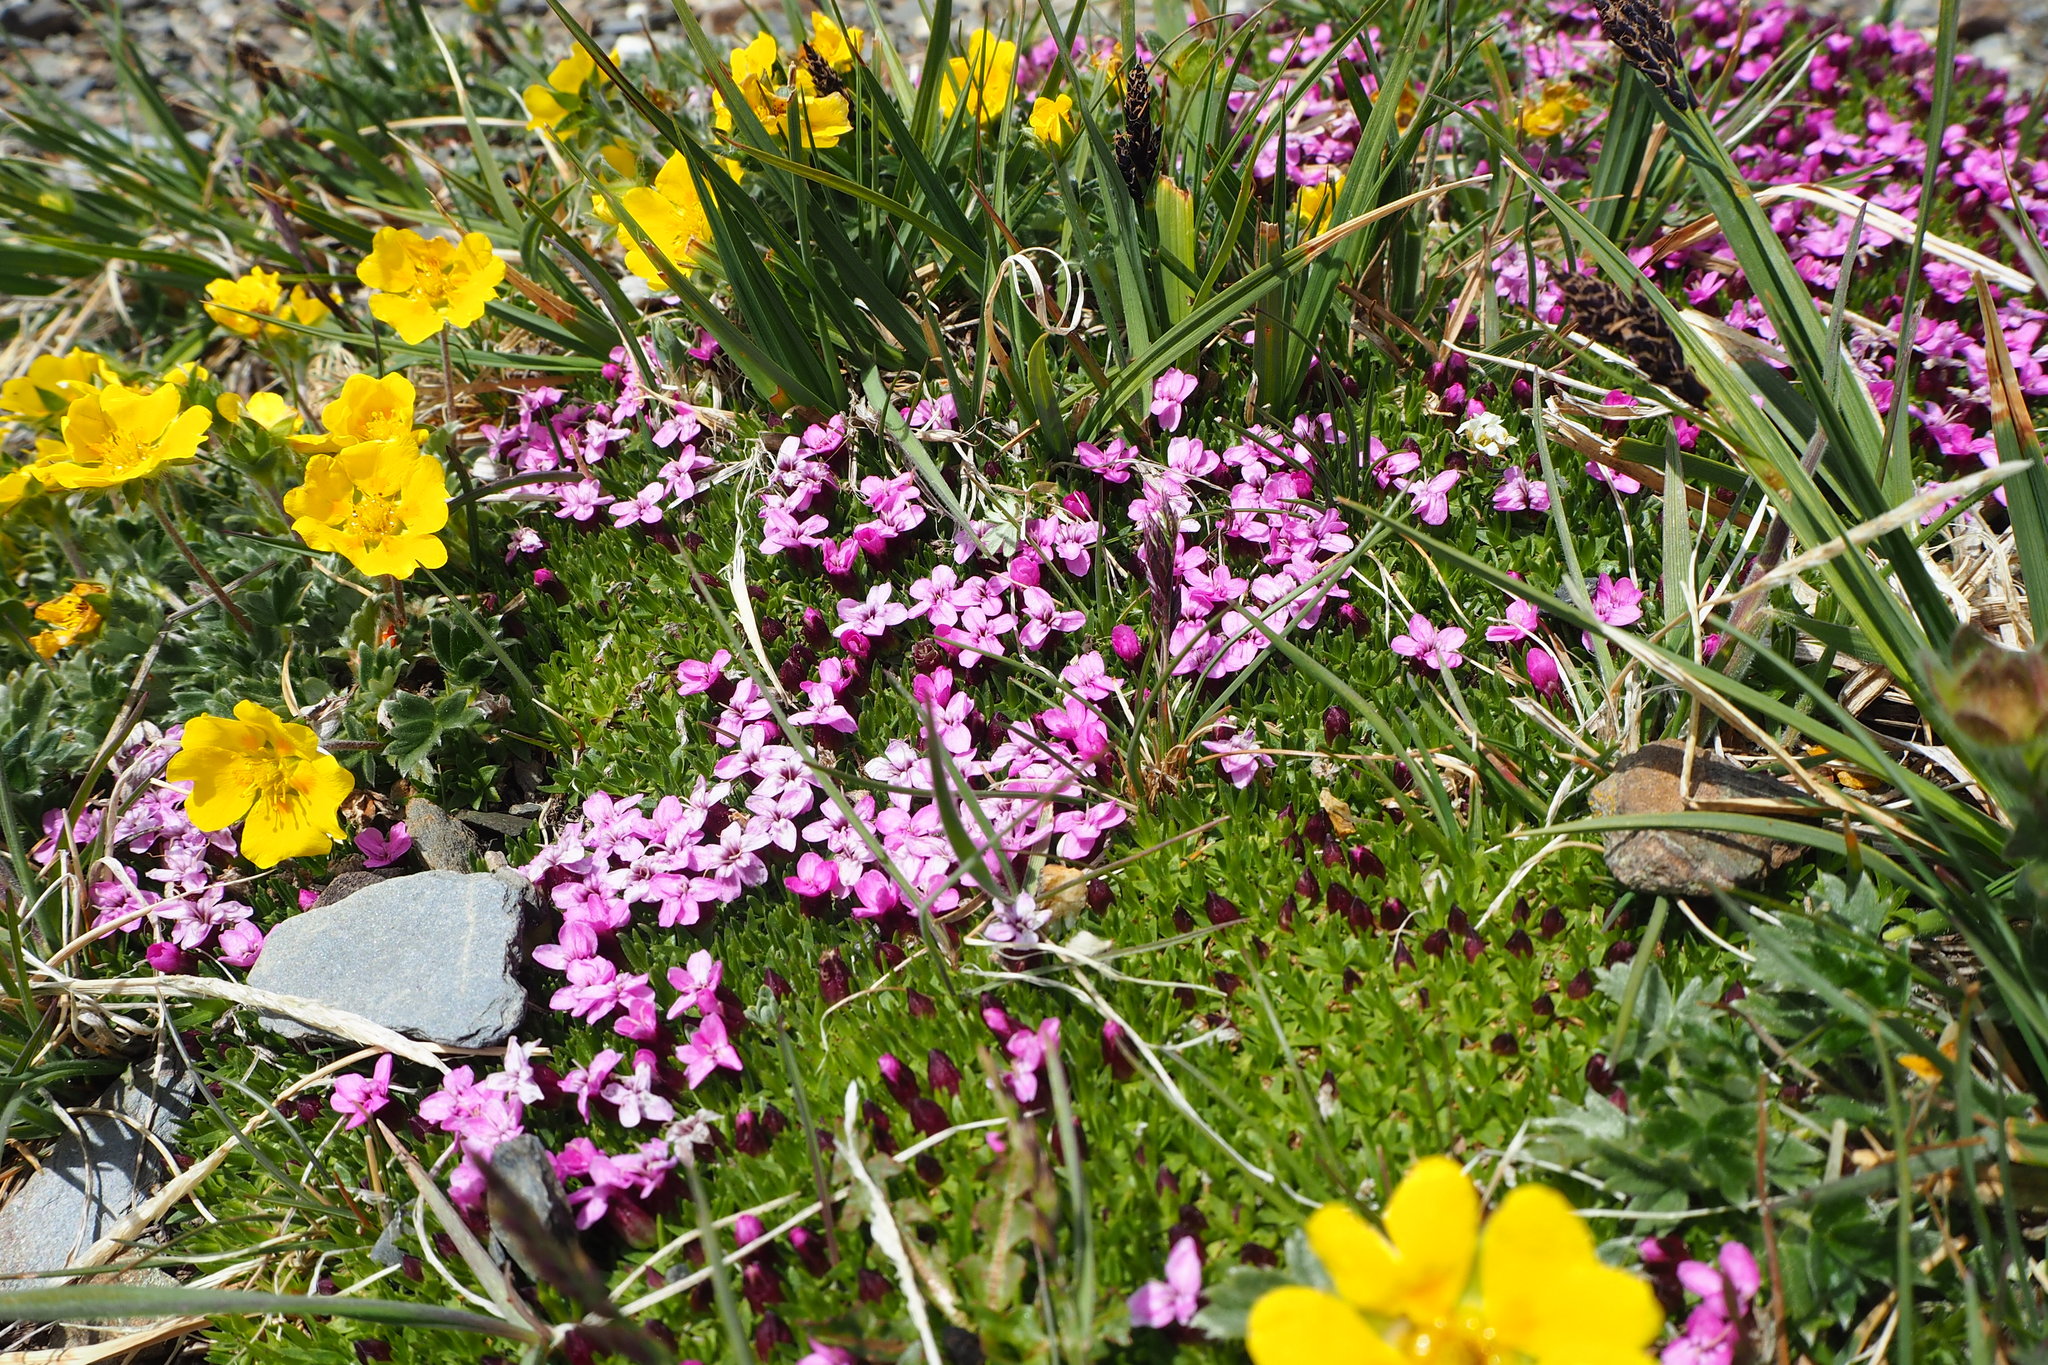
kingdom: Plantae
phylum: Tracheophyta
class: Magnoliopsida
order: Caryophyllales
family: Caryophyllaceae
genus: Silene
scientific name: Silene acaulis
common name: Moss campion
